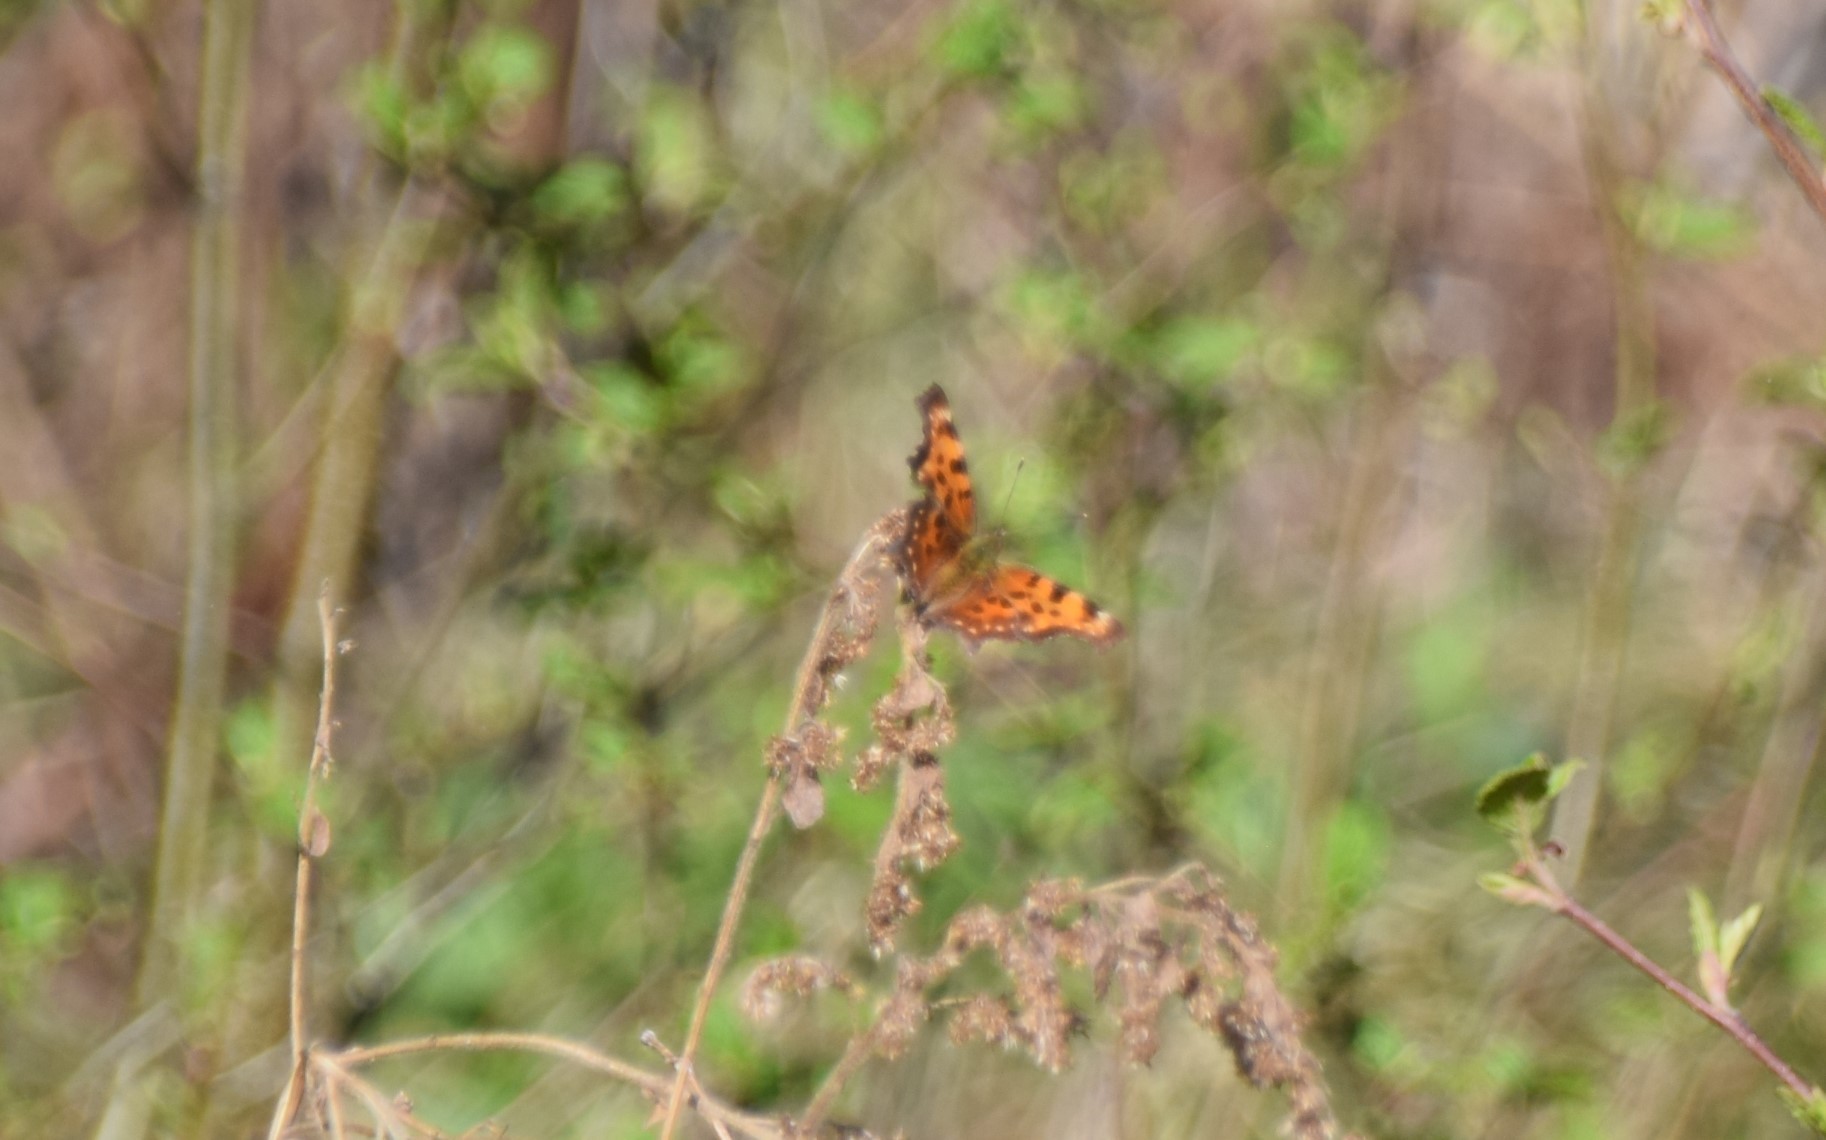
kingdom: Animalia
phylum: Arthropoda
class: Insecta
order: Lepidoptera
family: Nymphalidae
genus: Polygonia
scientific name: Polygonia faunus
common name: Green comma
